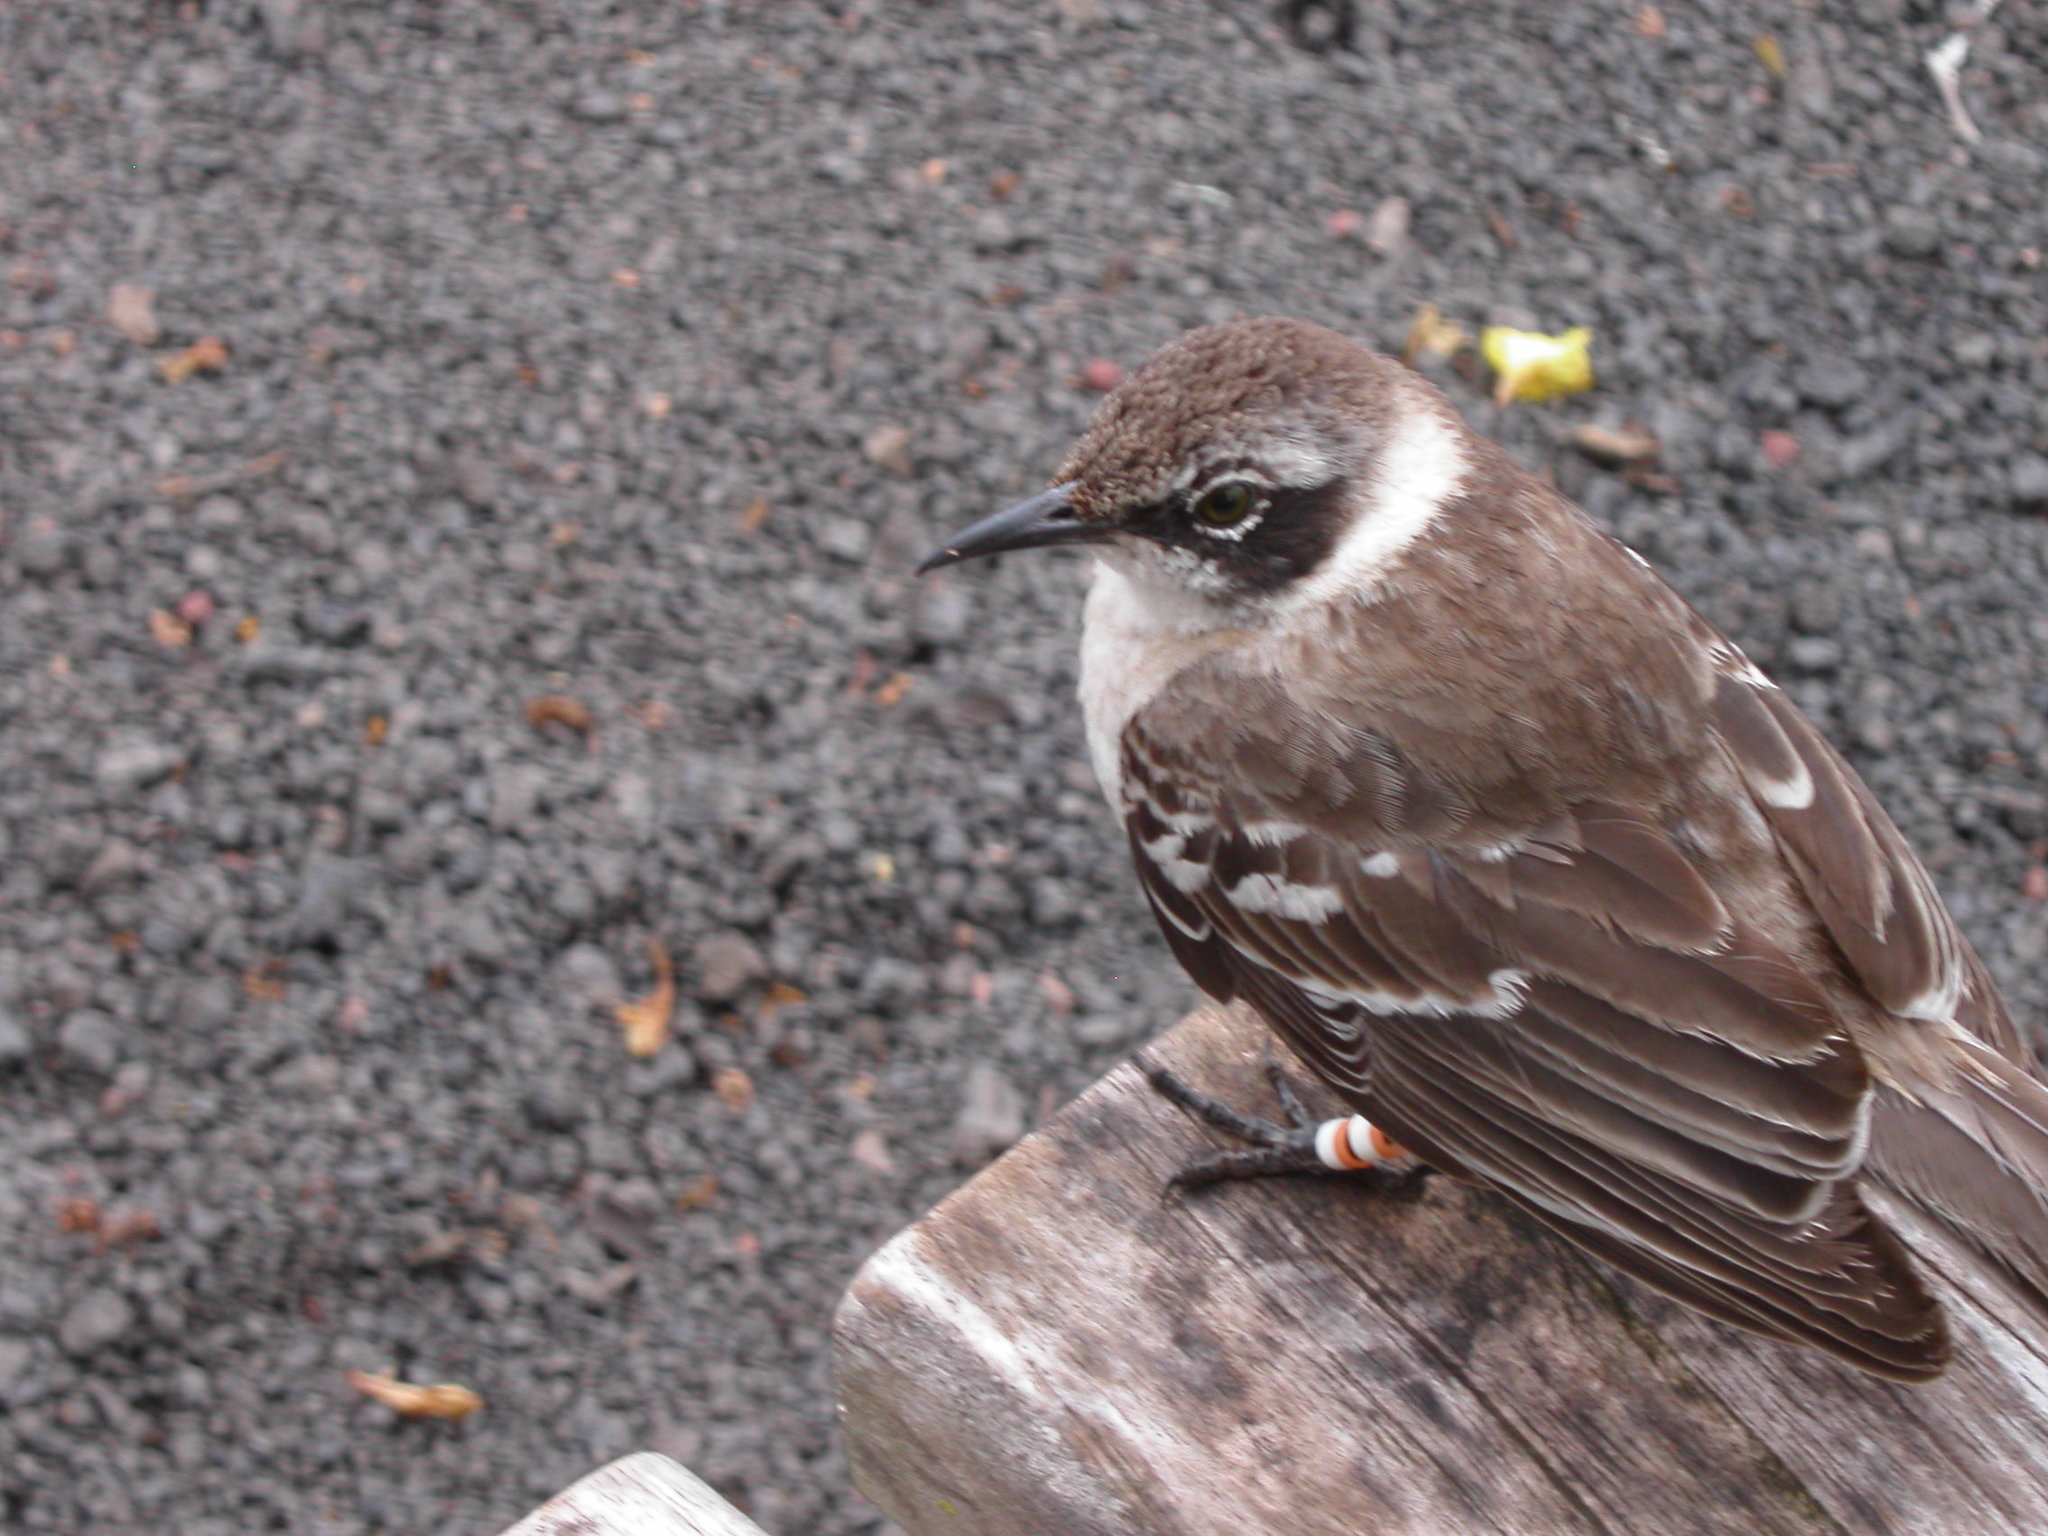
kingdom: Animalia
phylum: Chordata
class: Aves
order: Passeriformes
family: Mimidae
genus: Mimus
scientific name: Mimus parvulus
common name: Galapagos mockingbird
